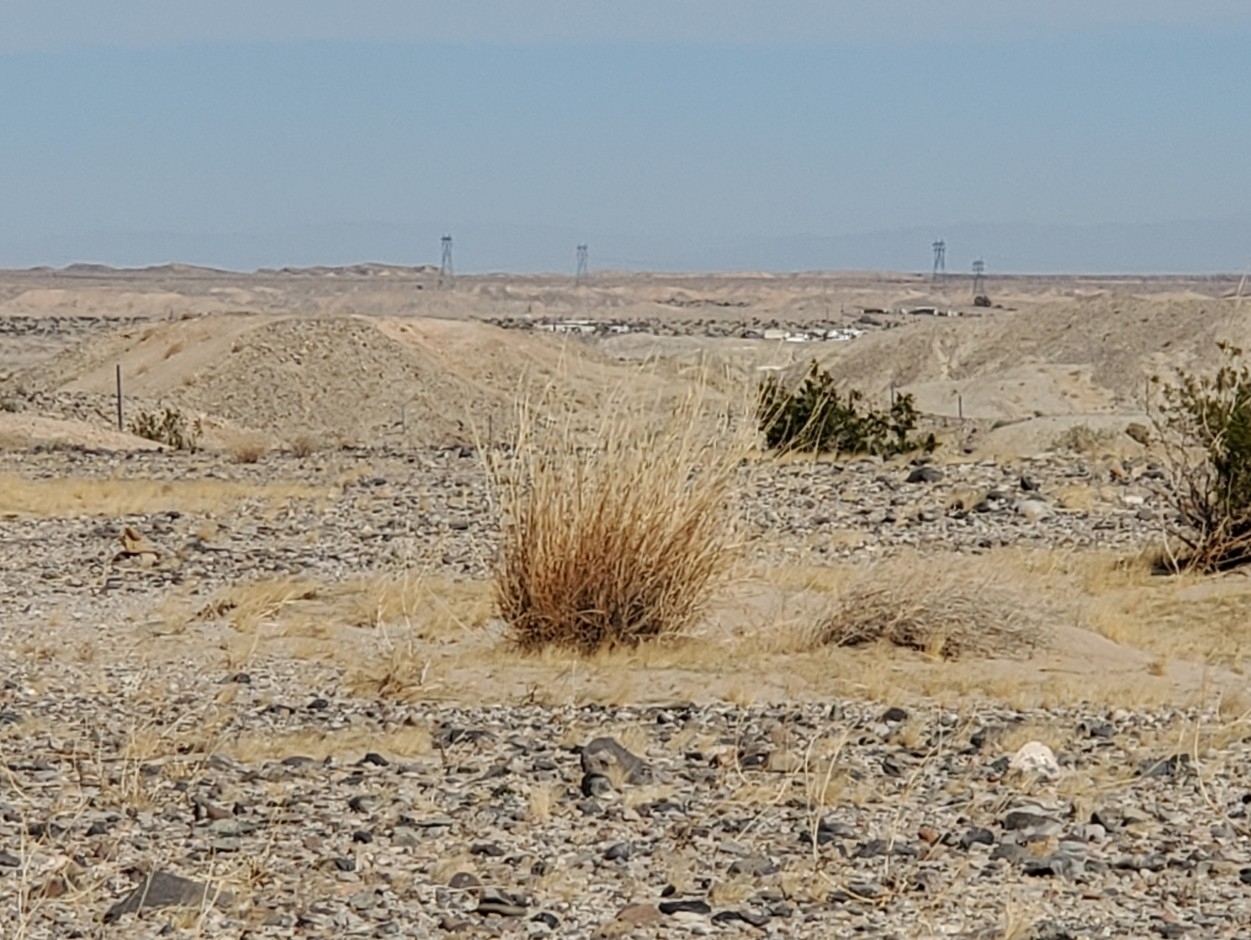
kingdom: Plantae
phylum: Tracheophyta
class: Liliopsida
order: Poales
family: Poaceae
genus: Hilaria
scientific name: Hilaria rigida
